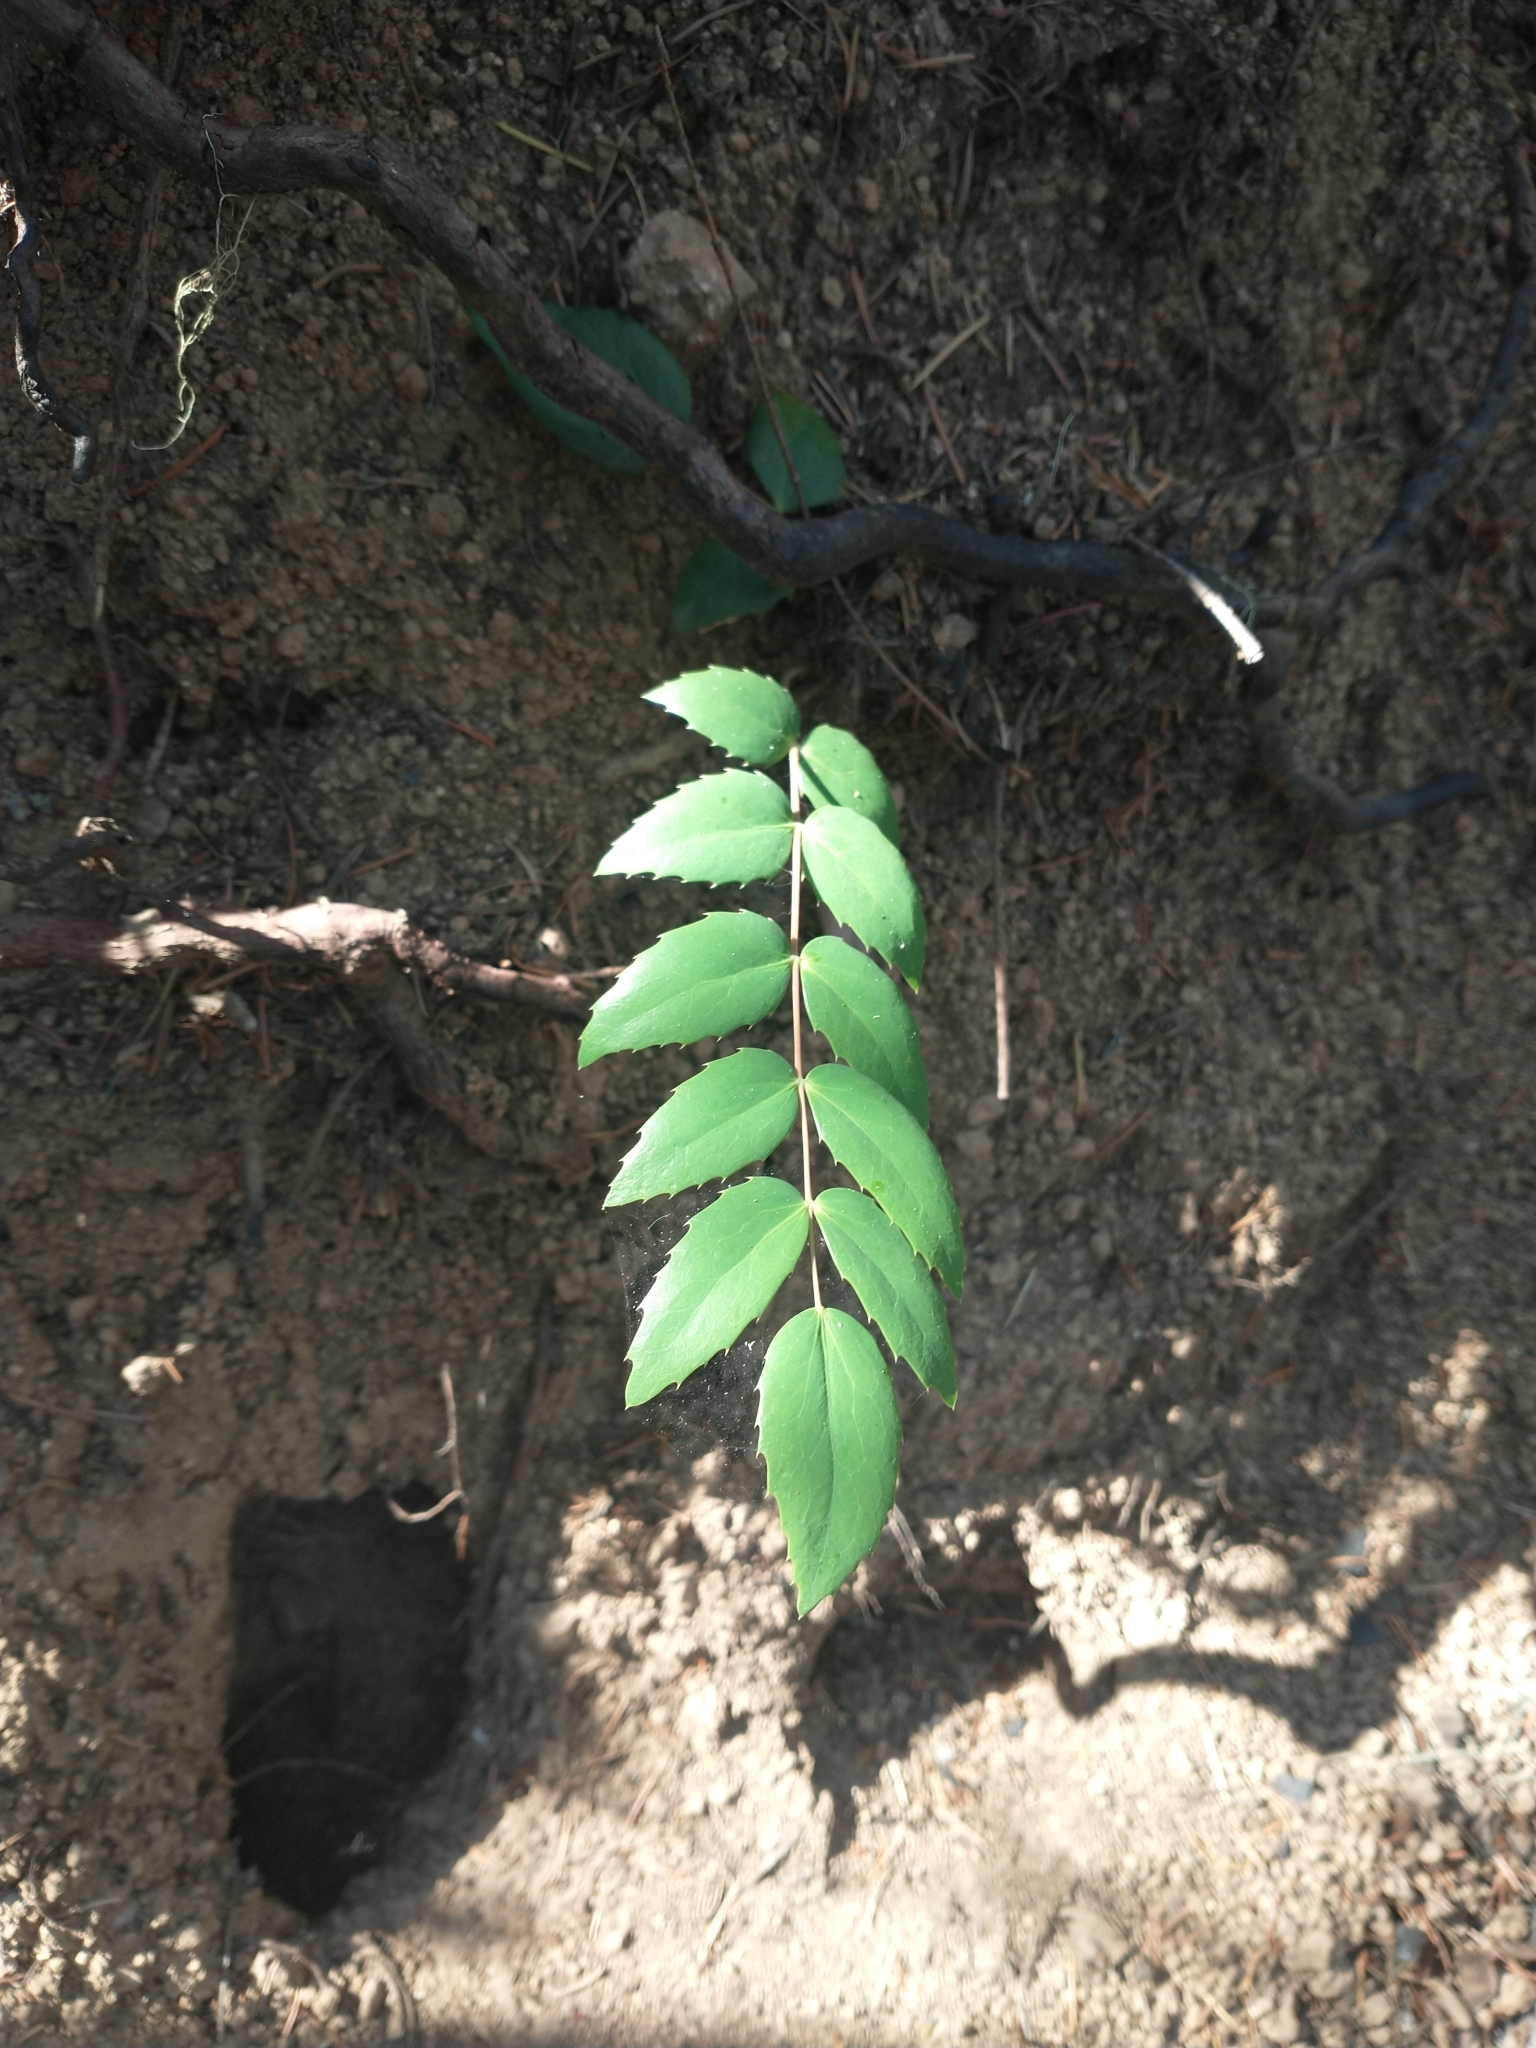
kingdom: Plantae
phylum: Tracheophyta
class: Magnoliopsida
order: Ranunculales
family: Berberidaceae
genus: Mahonia
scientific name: Mahonia nervosa
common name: Cascade oregon-grape
